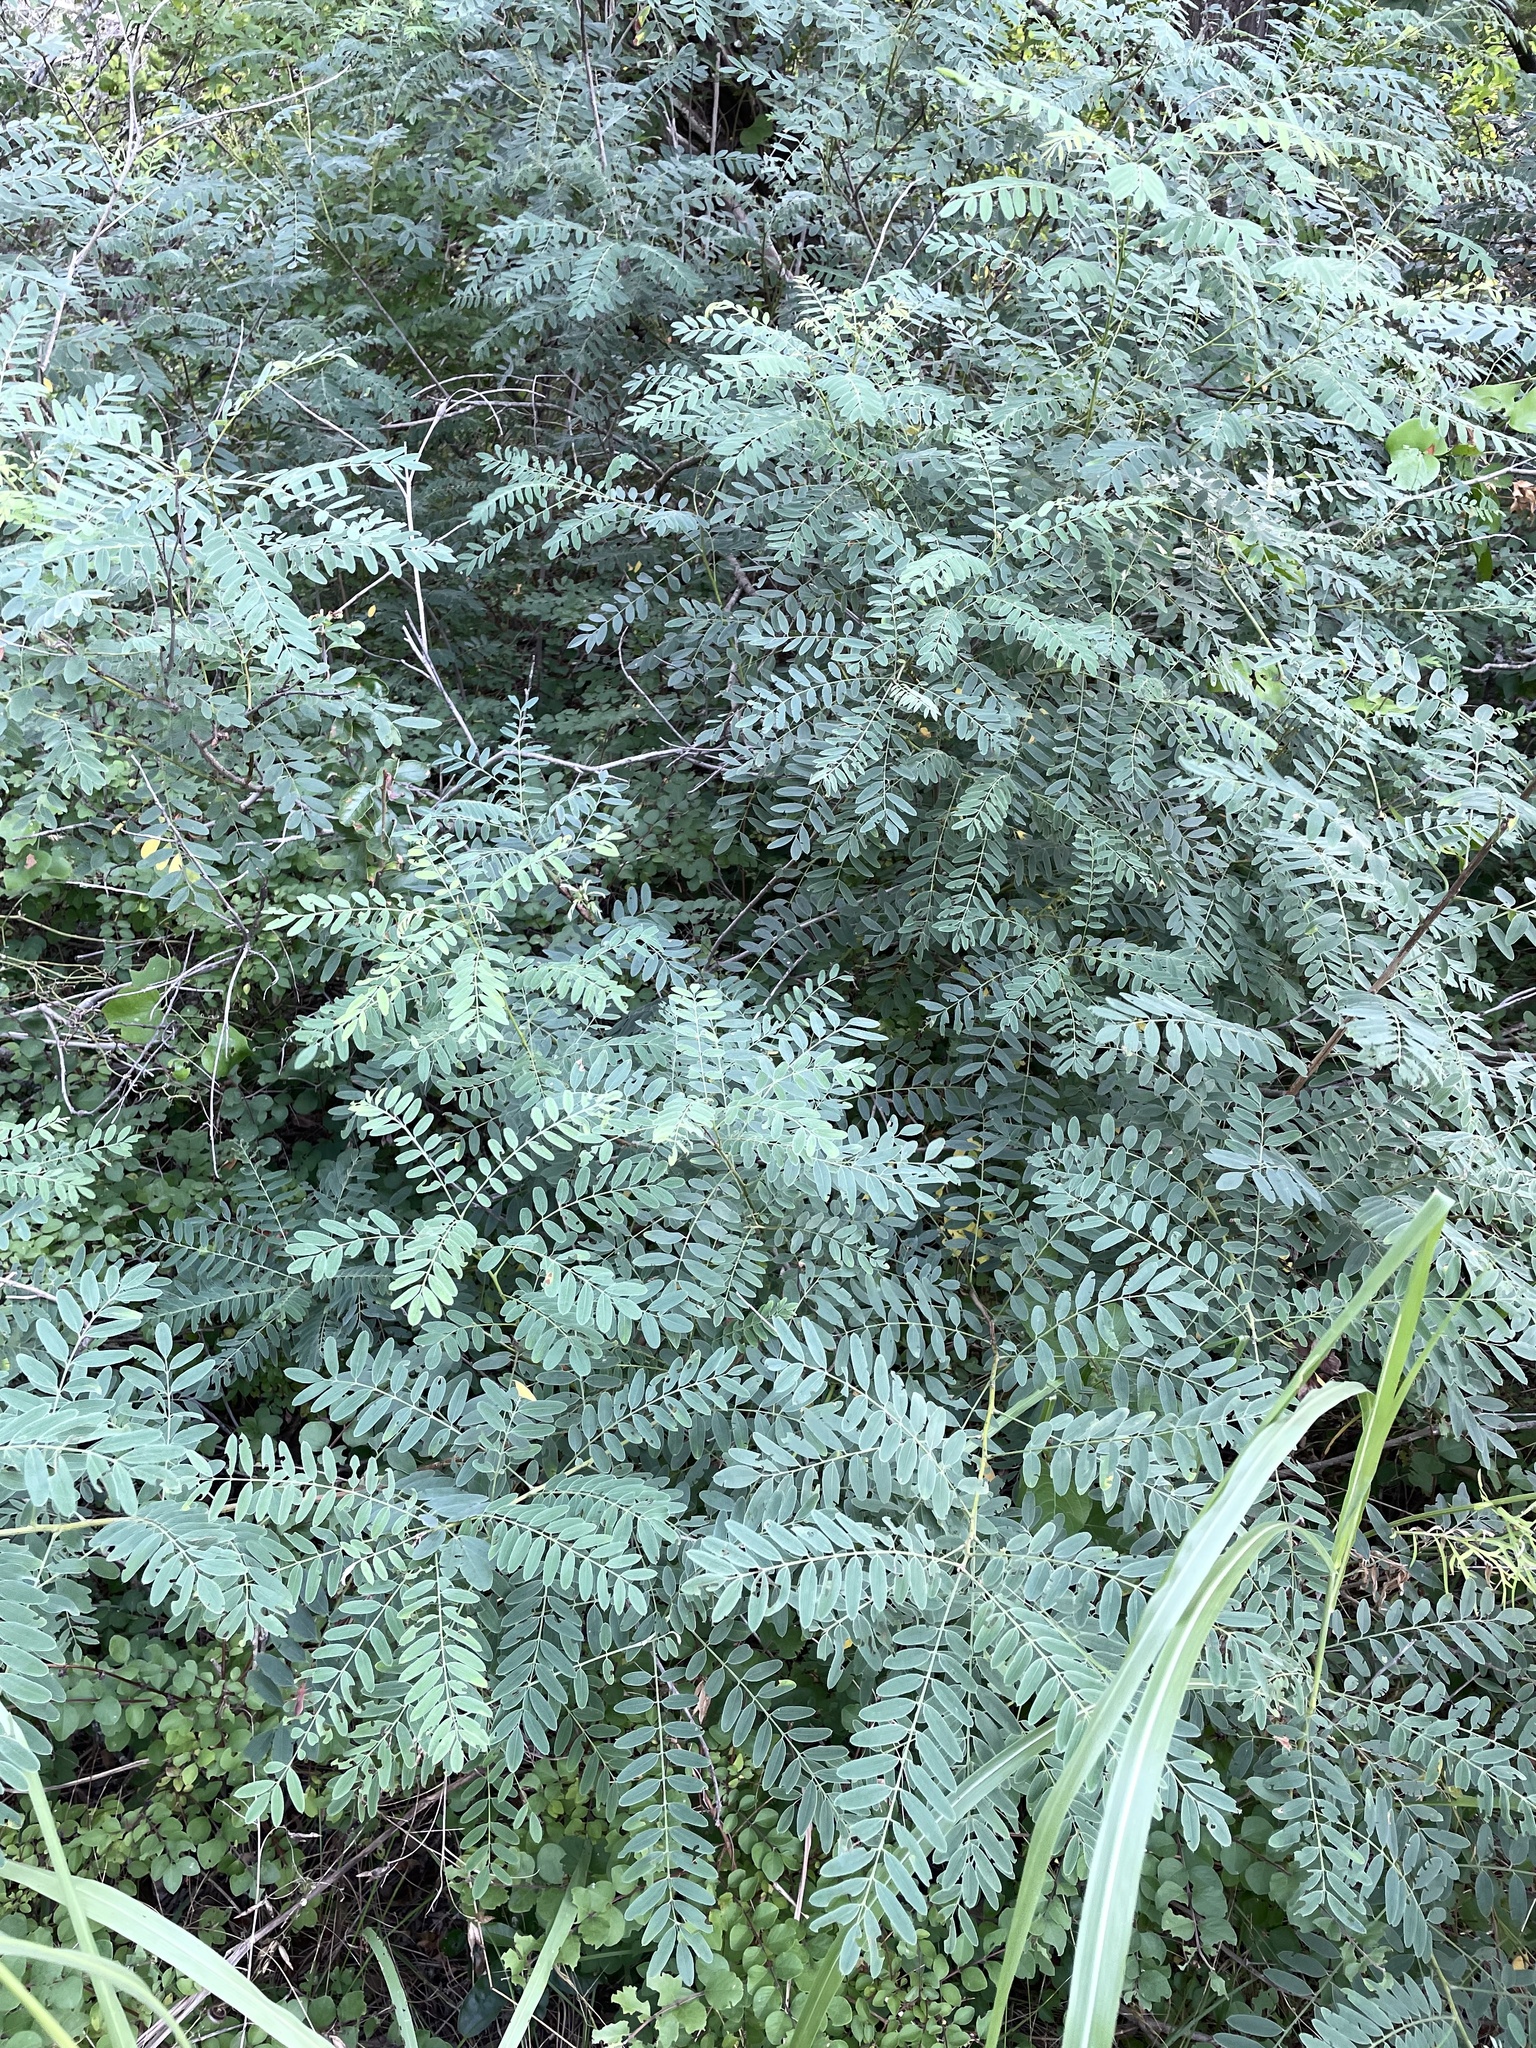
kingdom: Plantae
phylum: Tracheophyta
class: Magnoliopsida
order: Fabales
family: Fabaceae
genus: Amorpha
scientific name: Amorpha fruticosa
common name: False indigo
